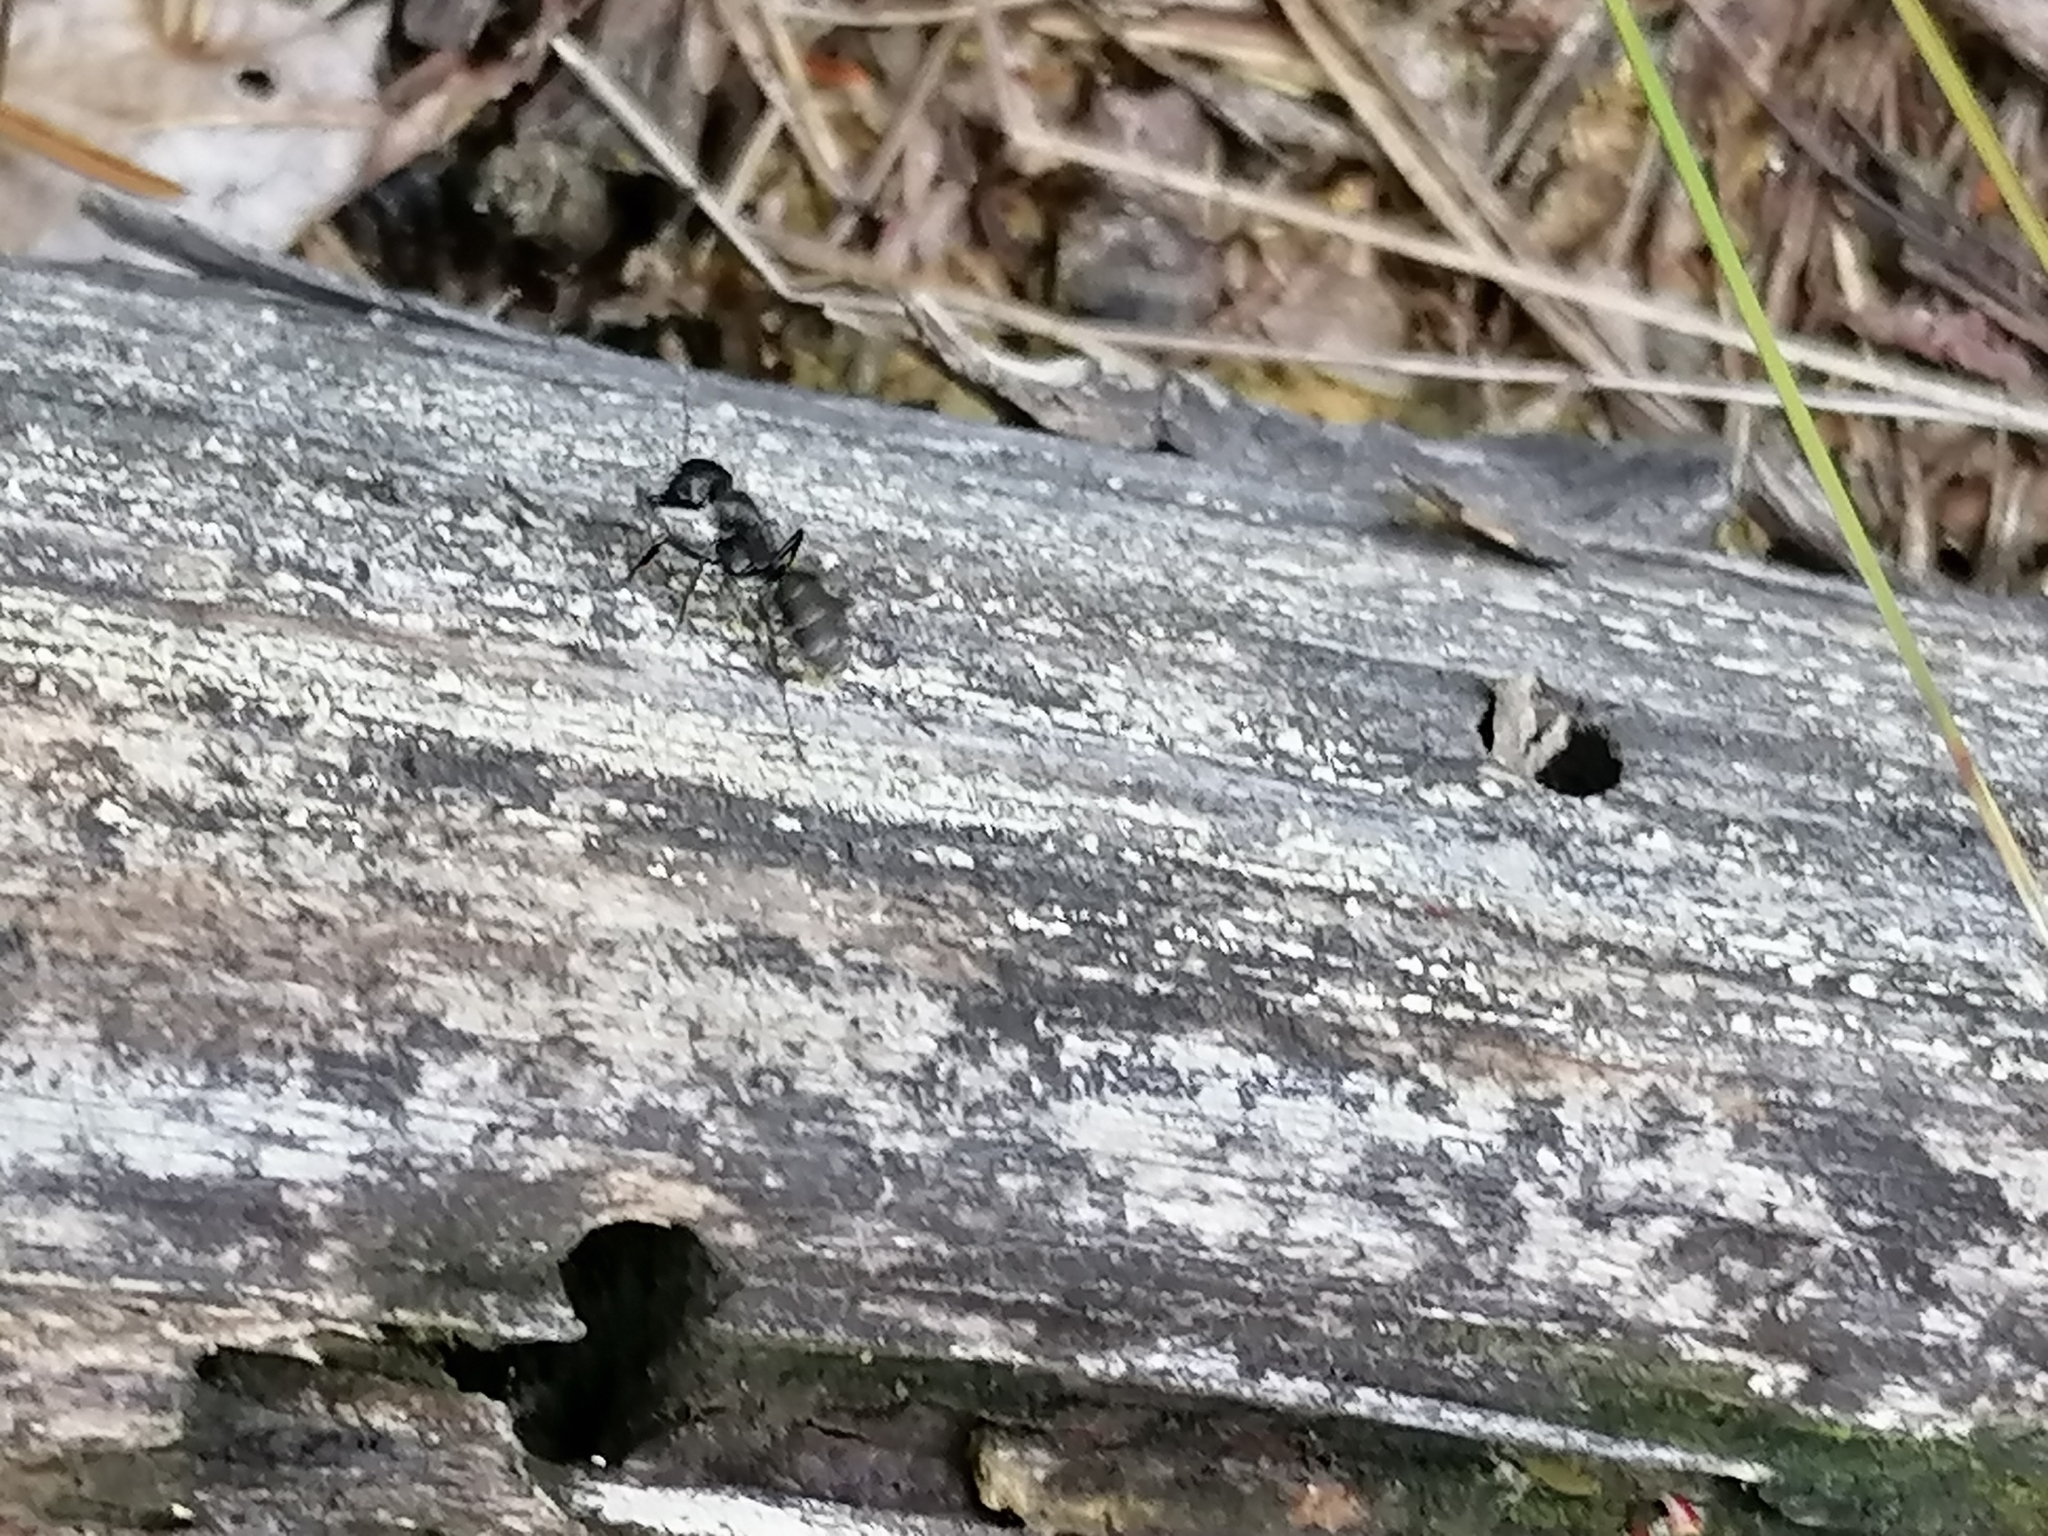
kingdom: Animalia
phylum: Arthropoda
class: Insecta
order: Hymenoptera
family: Formicidae
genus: Camponotus
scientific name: Camponotus vagus
